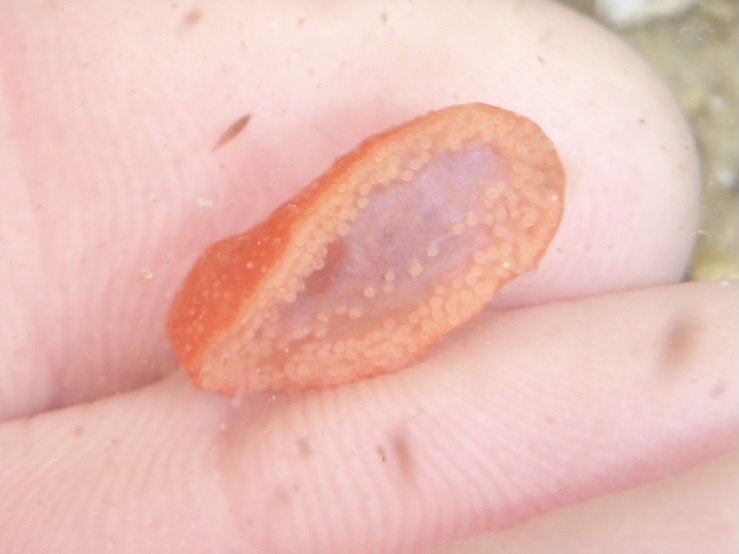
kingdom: Animalia
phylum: Echinodermata
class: Holothuroidea
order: Dendrochirotida
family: Psolidae
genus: Lissothuria
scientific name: Lissothuria nutriens
